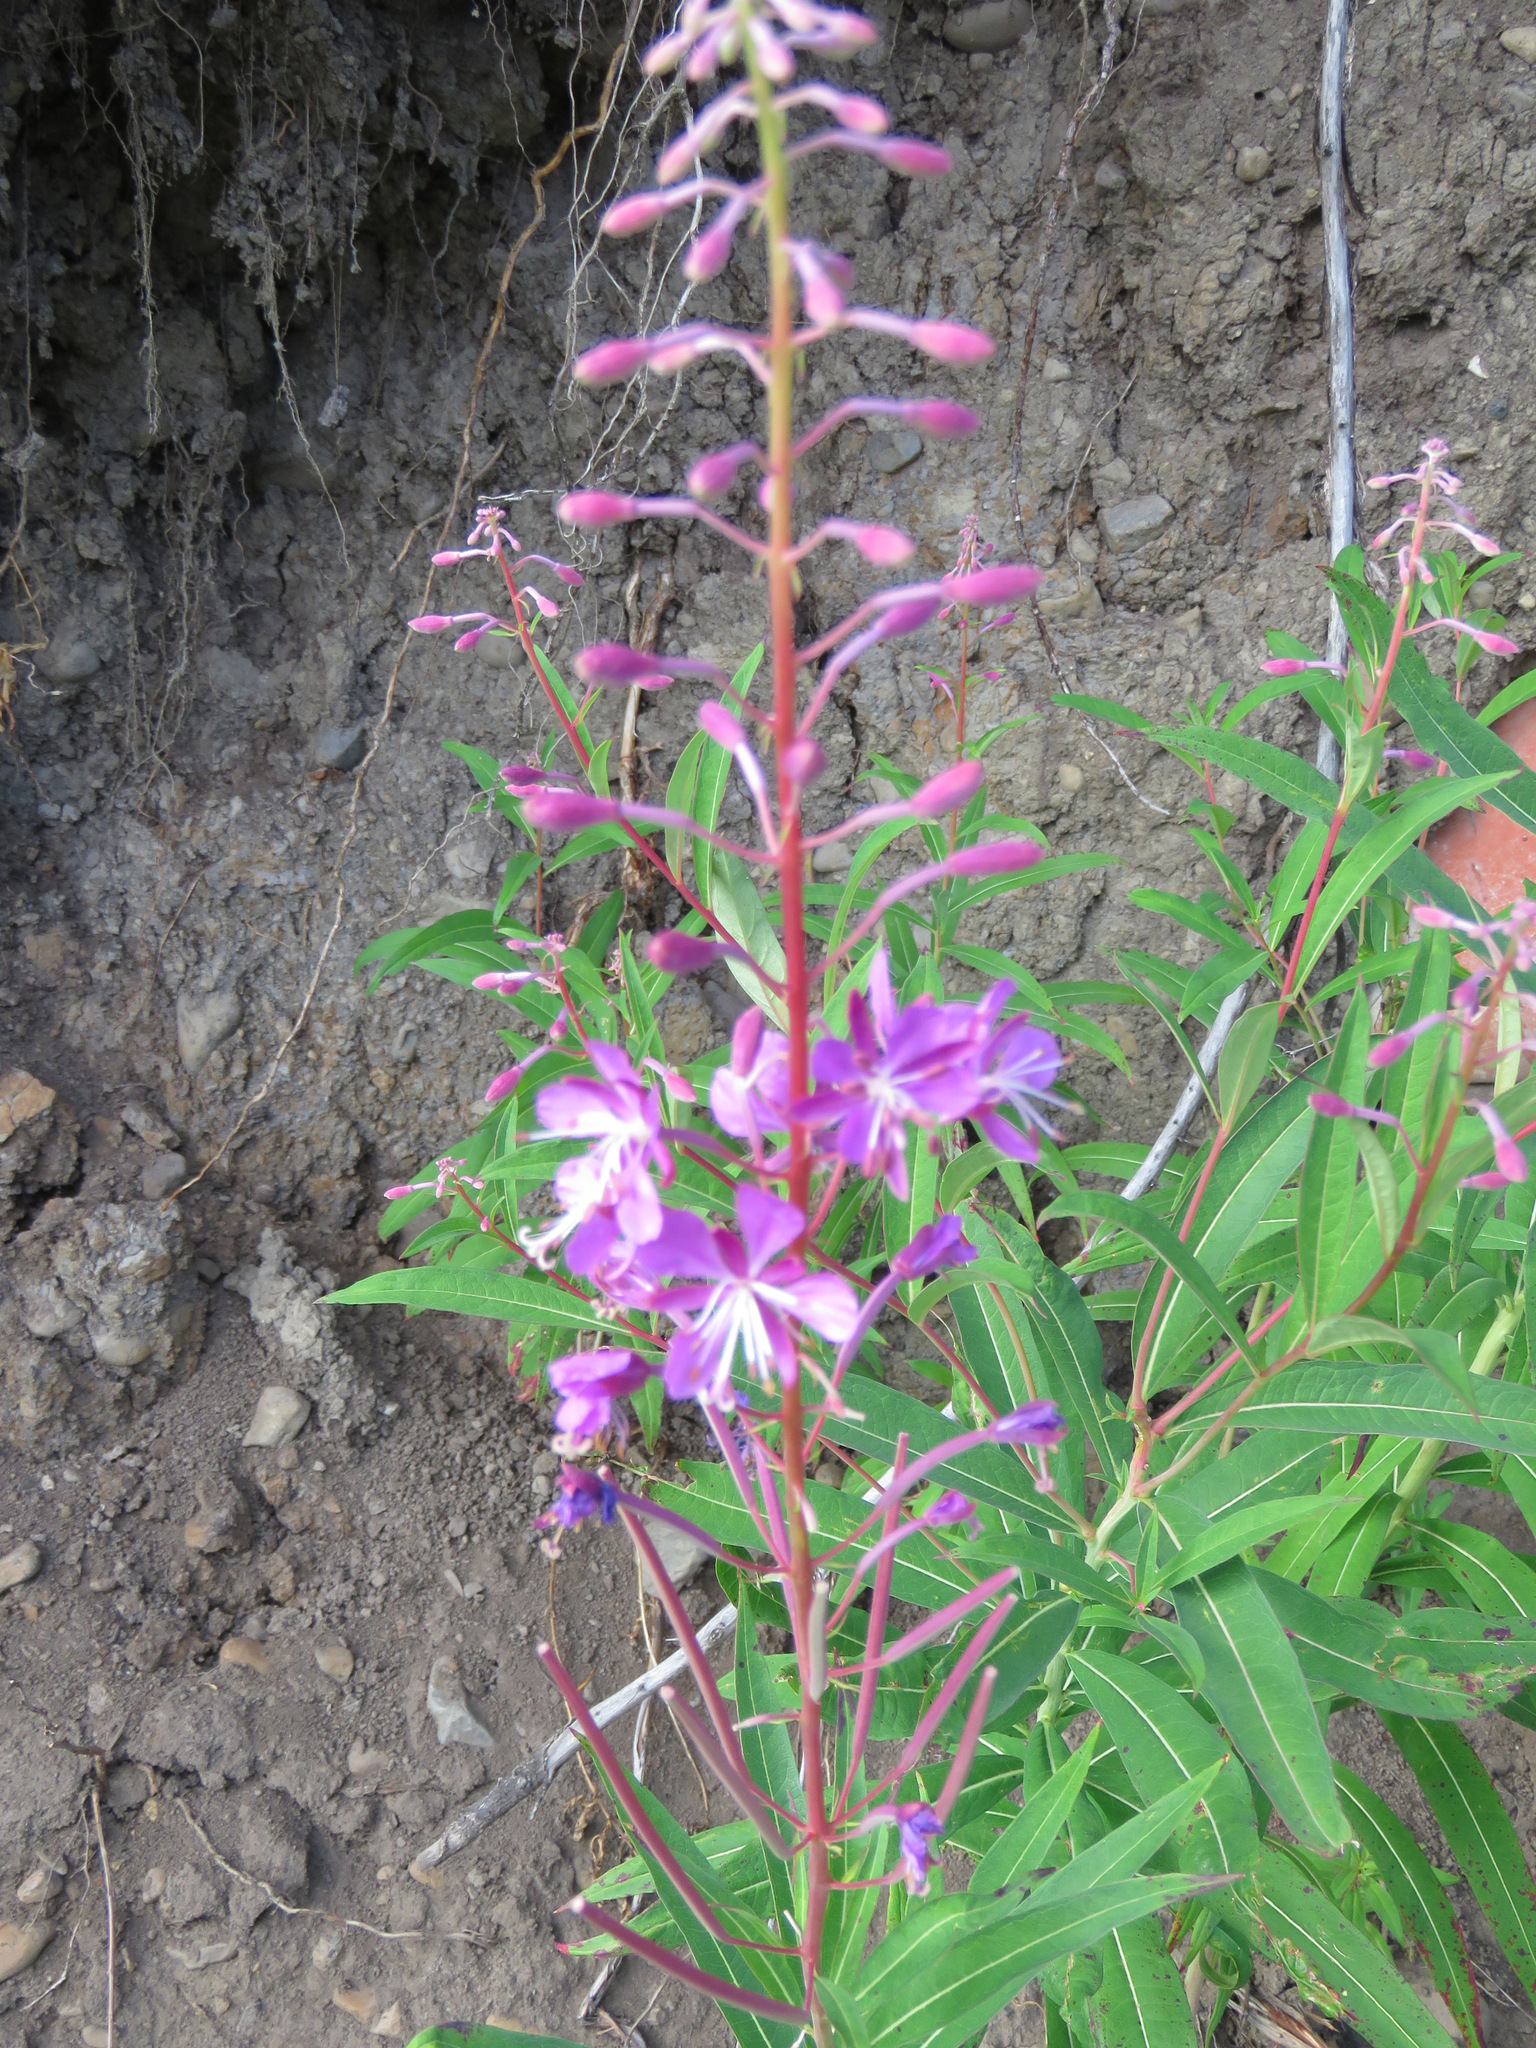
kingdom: Plantae
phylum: Tracheophyta
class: Magnoliopsida
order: Myrtales
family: Onagraceae
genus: Chamaenerion
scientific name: Chamaenerion angustifolium
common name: Fireweed
